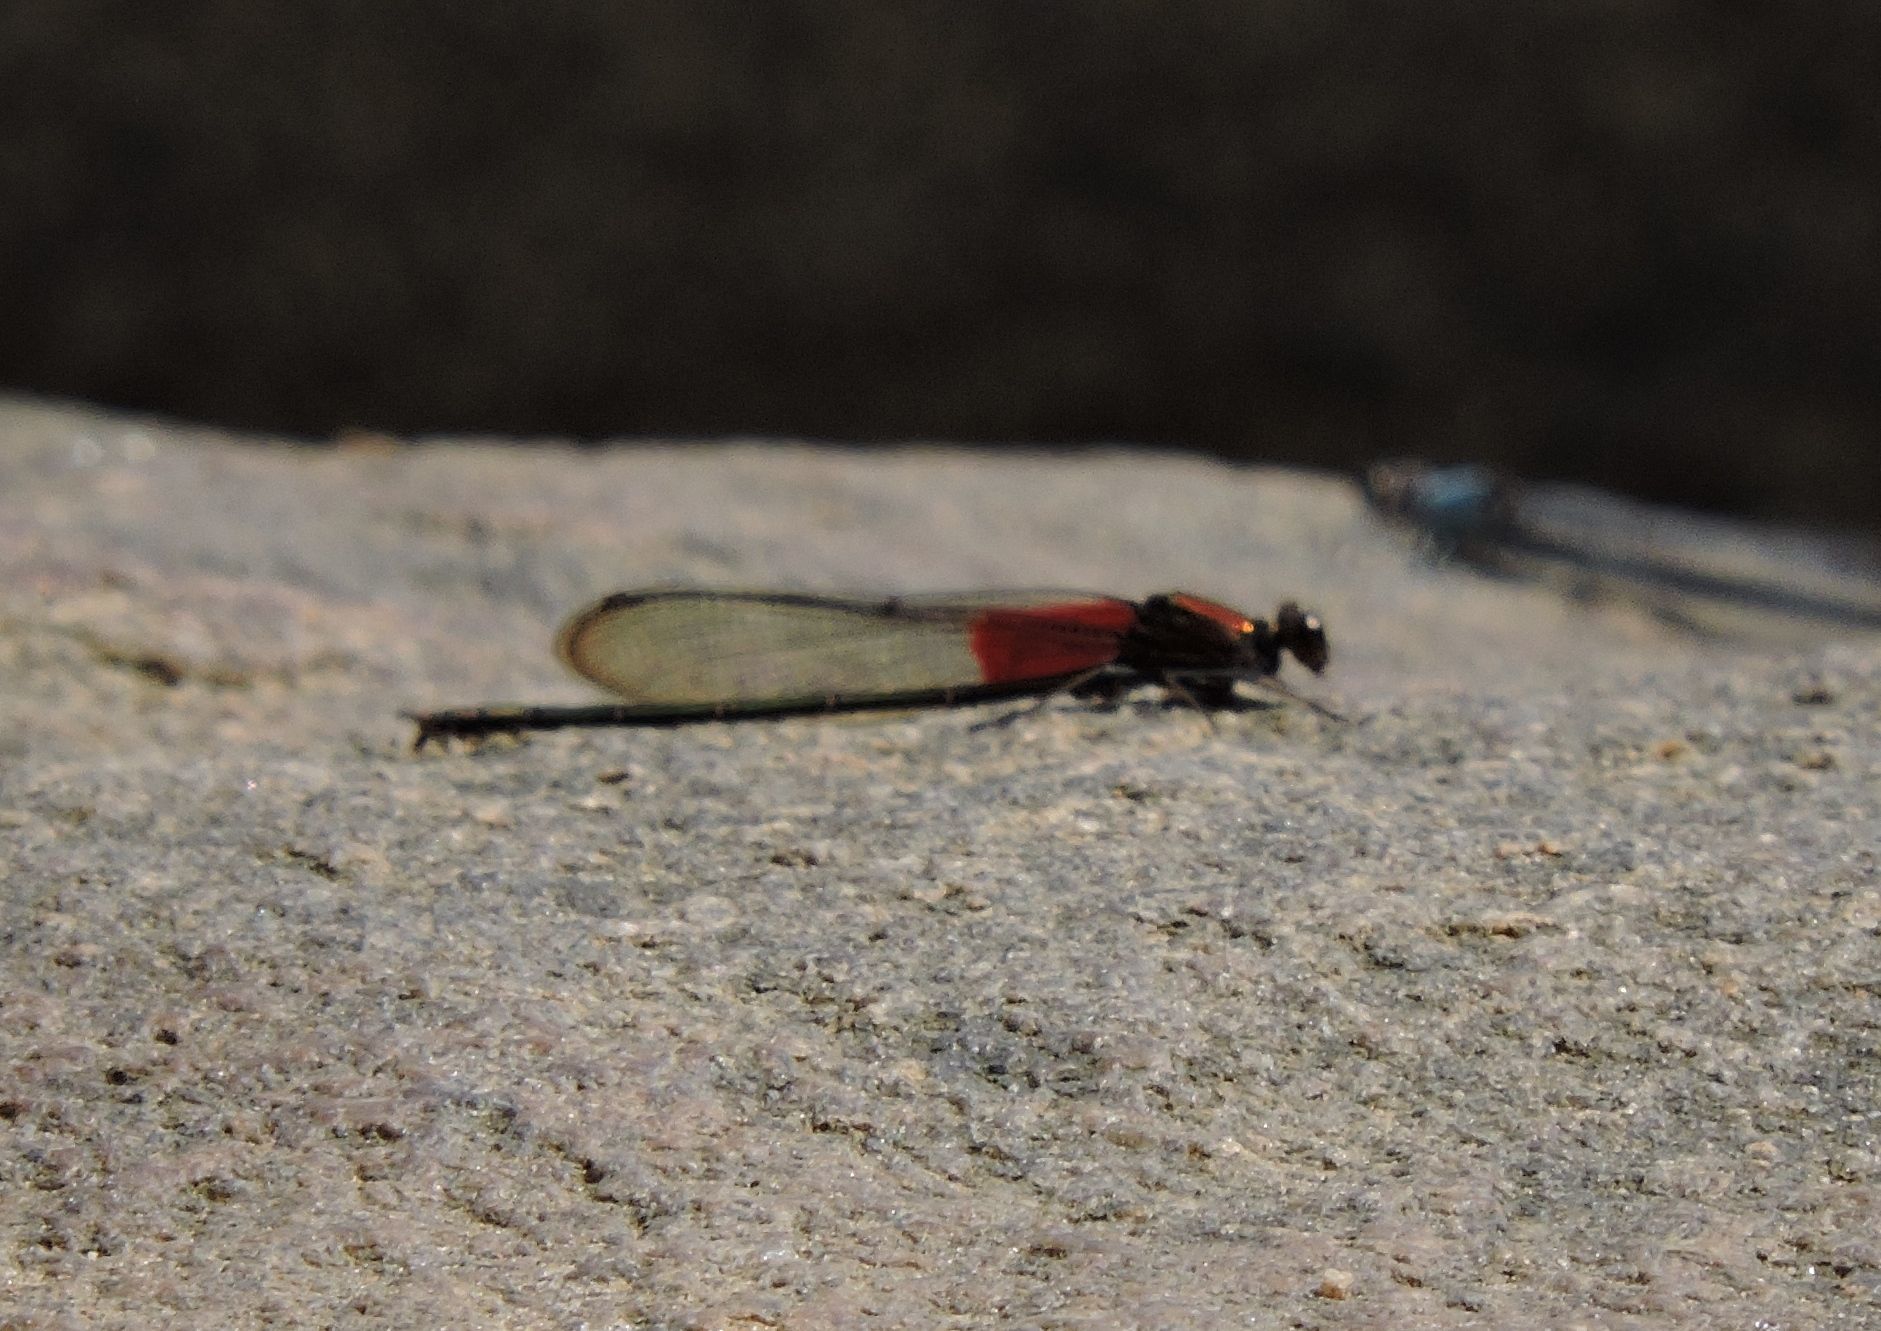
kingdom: Animalia
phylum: Arthropoda
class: Insecta
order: Odonata
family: Calopterygidae
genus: Hetaerina
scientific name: Hetaerina americana
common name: American rubyspot
